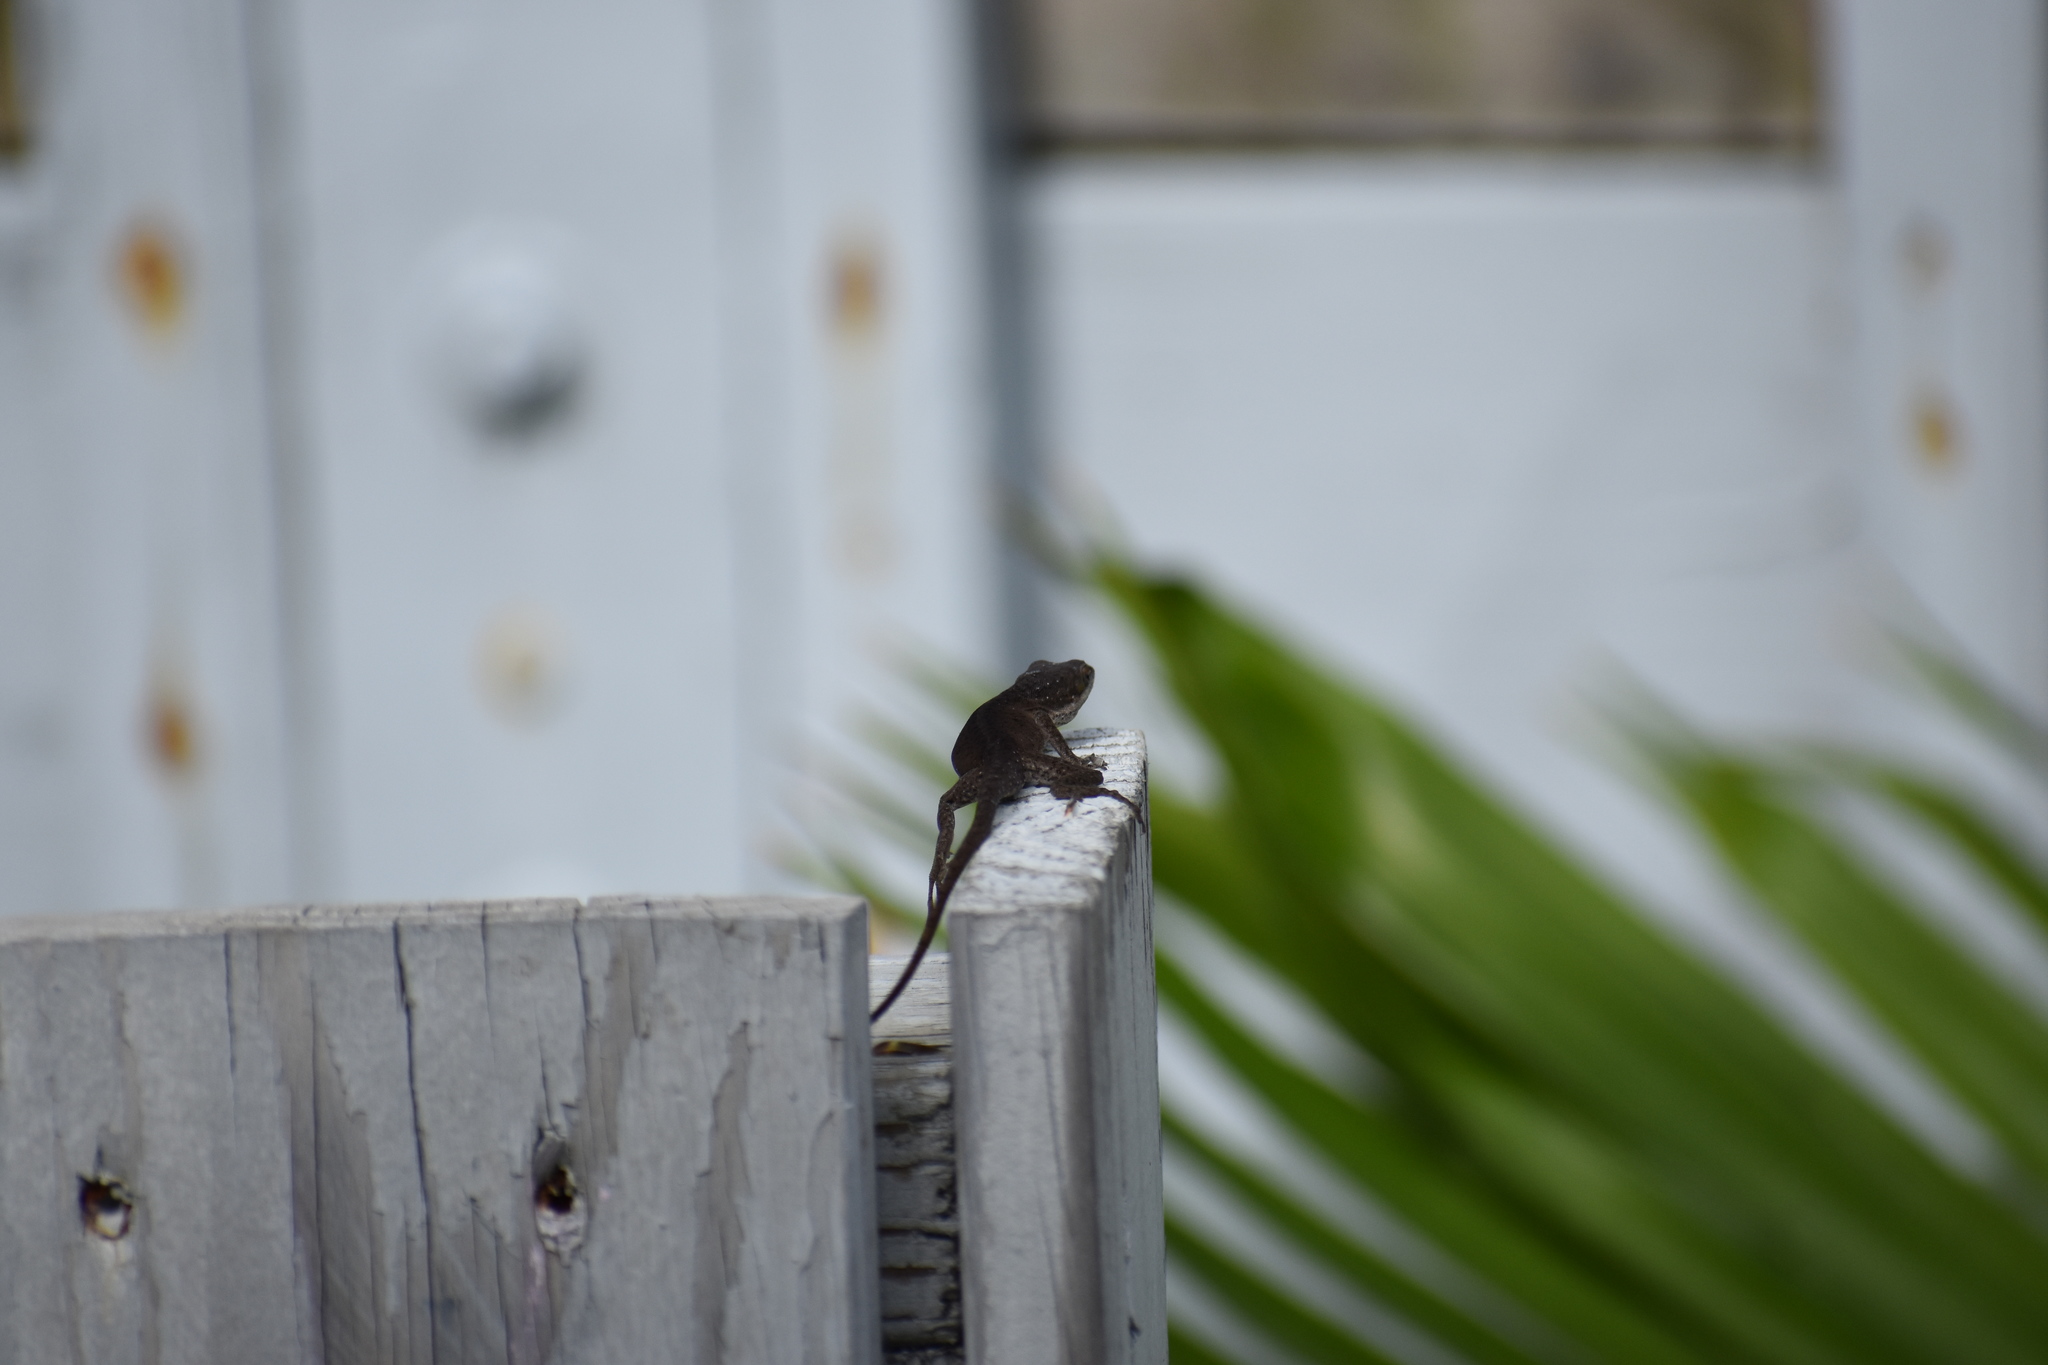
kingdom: Animalia
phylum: Chordata
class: Squamata
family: Dactyloidae
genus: Anolis
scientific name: Anolis carolinensis
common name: Green anole
